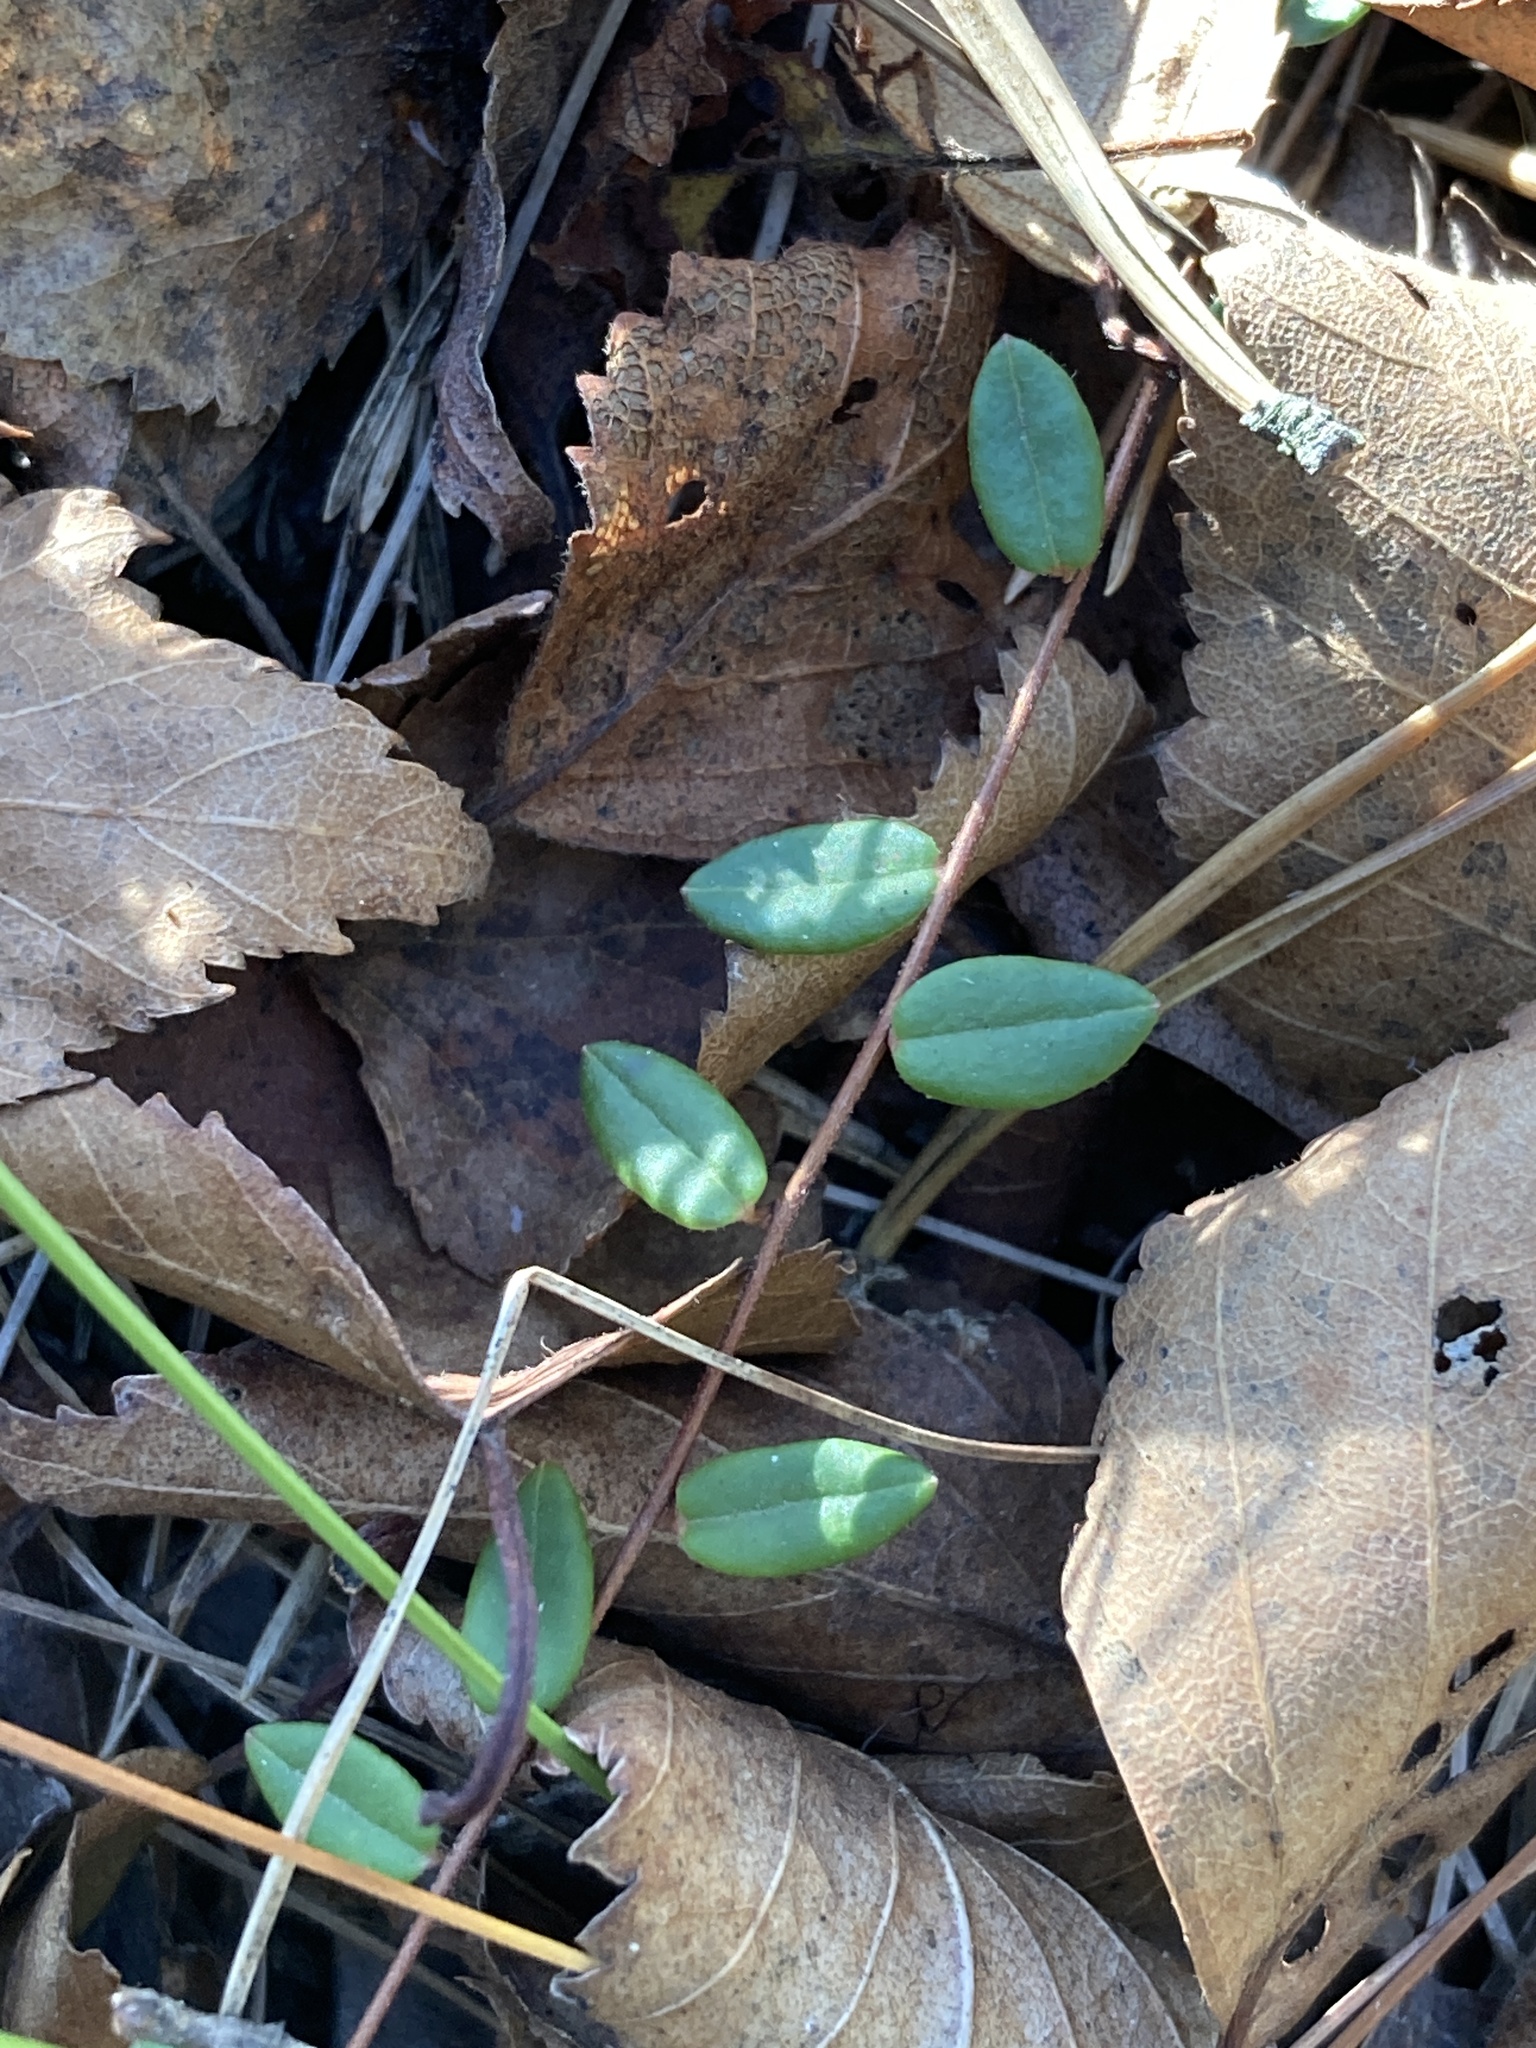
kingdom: Plantae
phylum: Tracheophyta
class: Magnoliopsida
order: Ericales
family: Ericaceae
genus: Vaccinium
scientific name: Vaccinium oxycoccos
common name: Cranberry
